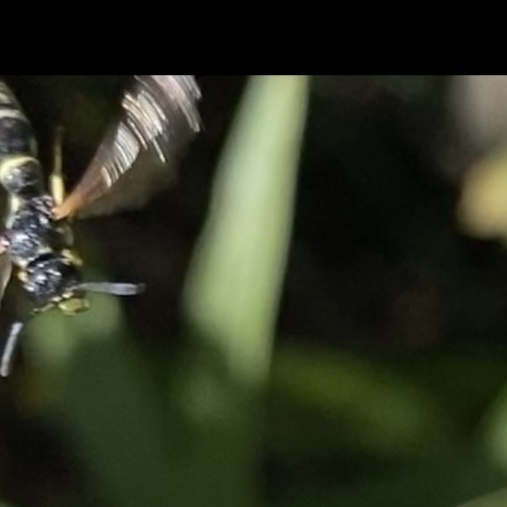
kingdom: Animalia
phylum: Arthropoda
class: Insecta
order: Hymenoptera
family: Eumenidae
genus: Symmorphus
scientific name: Symmorphus
